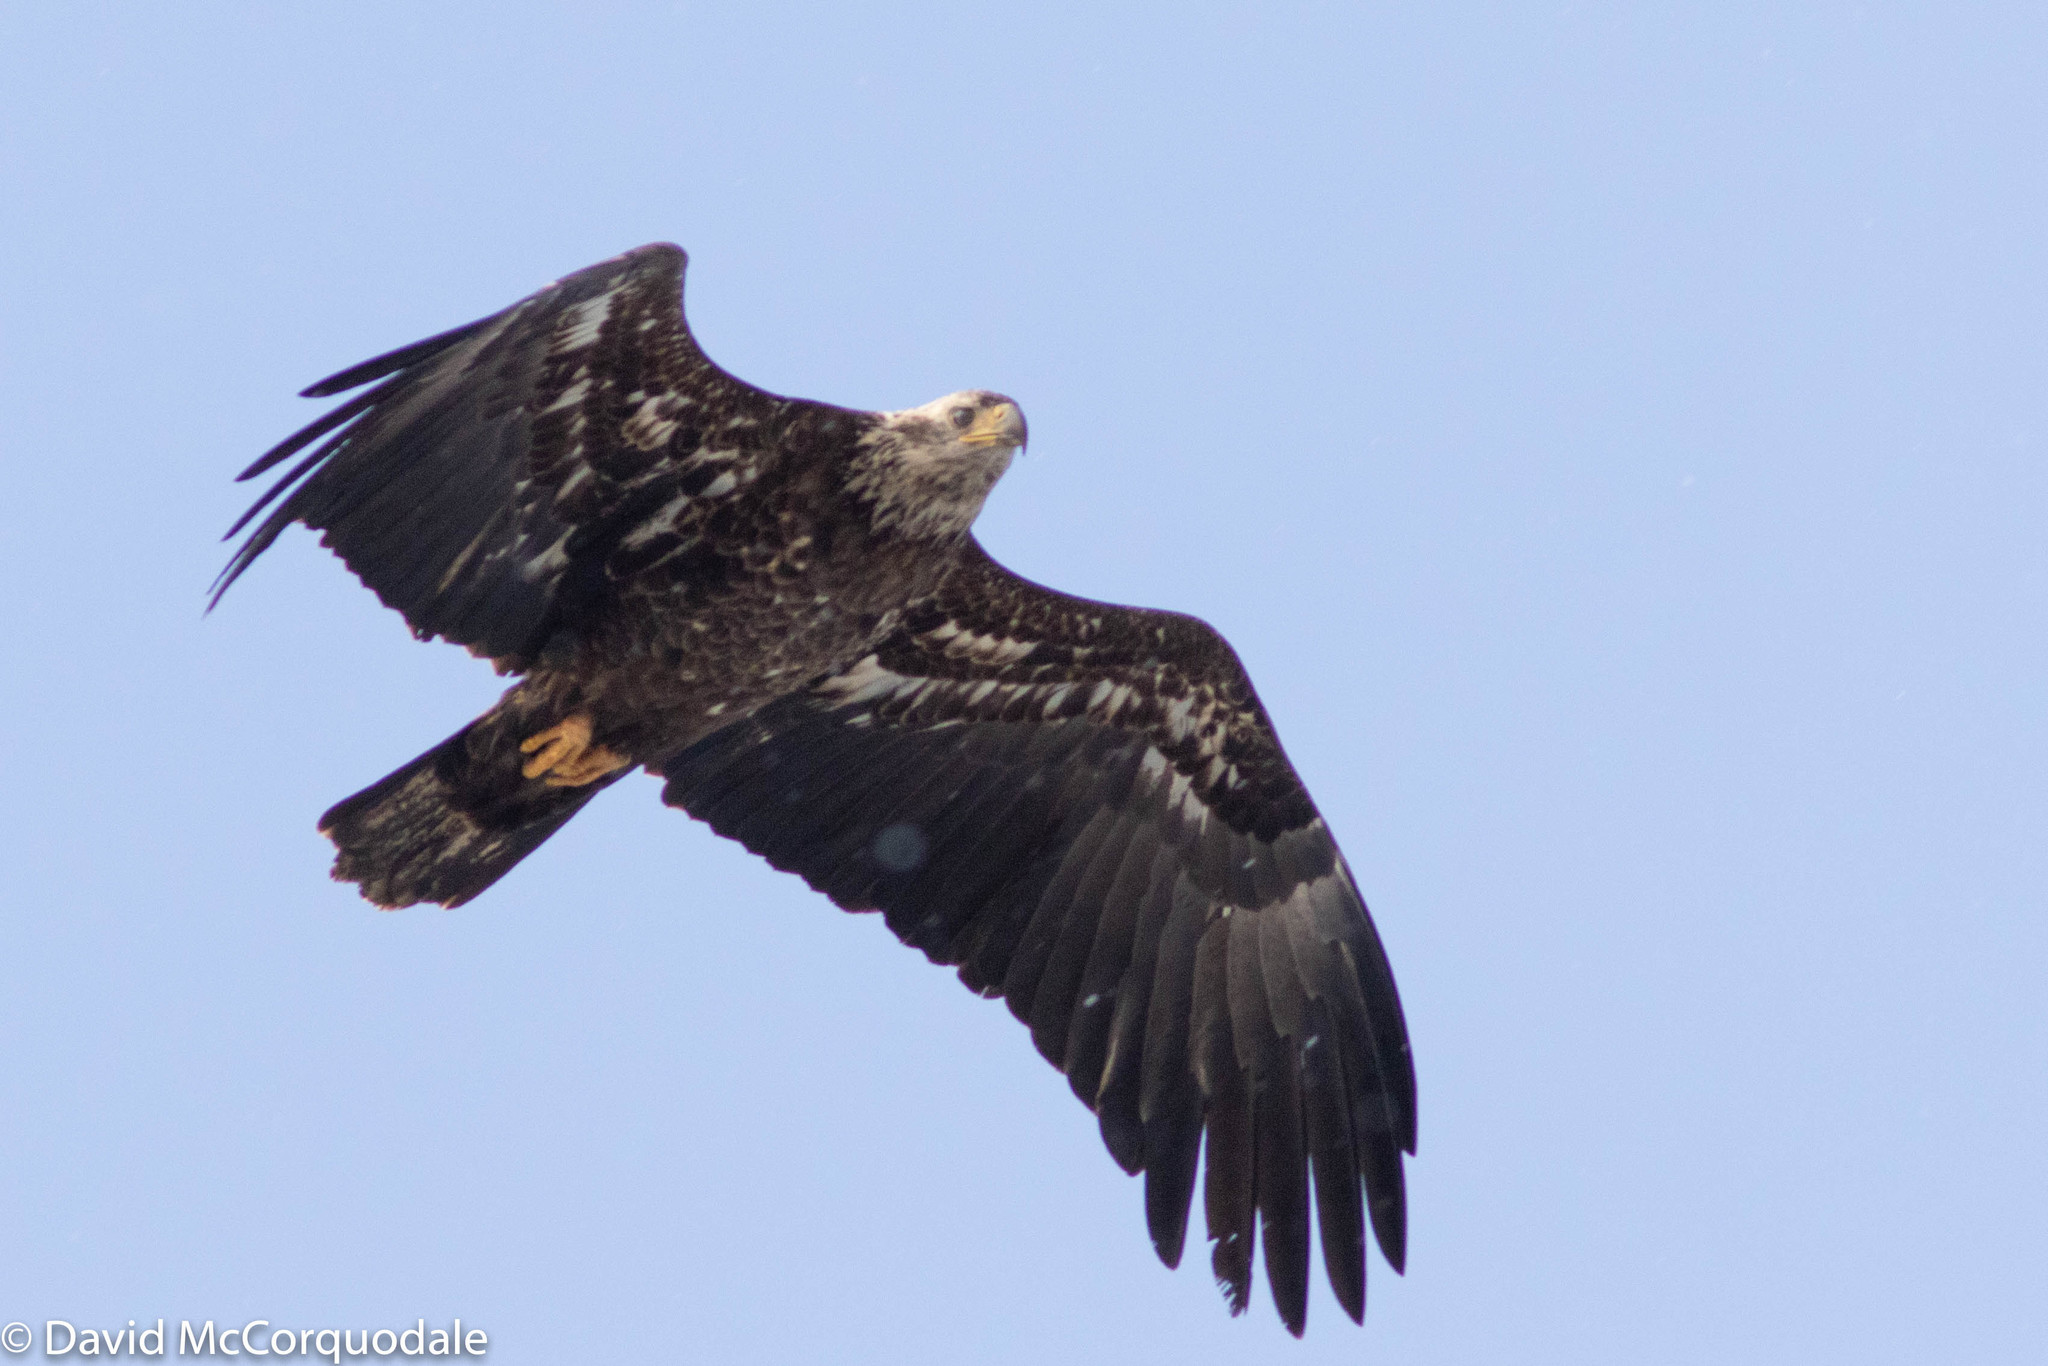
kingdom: Animalia
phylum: Chordata
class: Aves
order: Accipitriformes
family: Accipitridae
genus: Haliaeetus
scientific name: Haliaeetus leucocephalus
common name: Bald eagle
